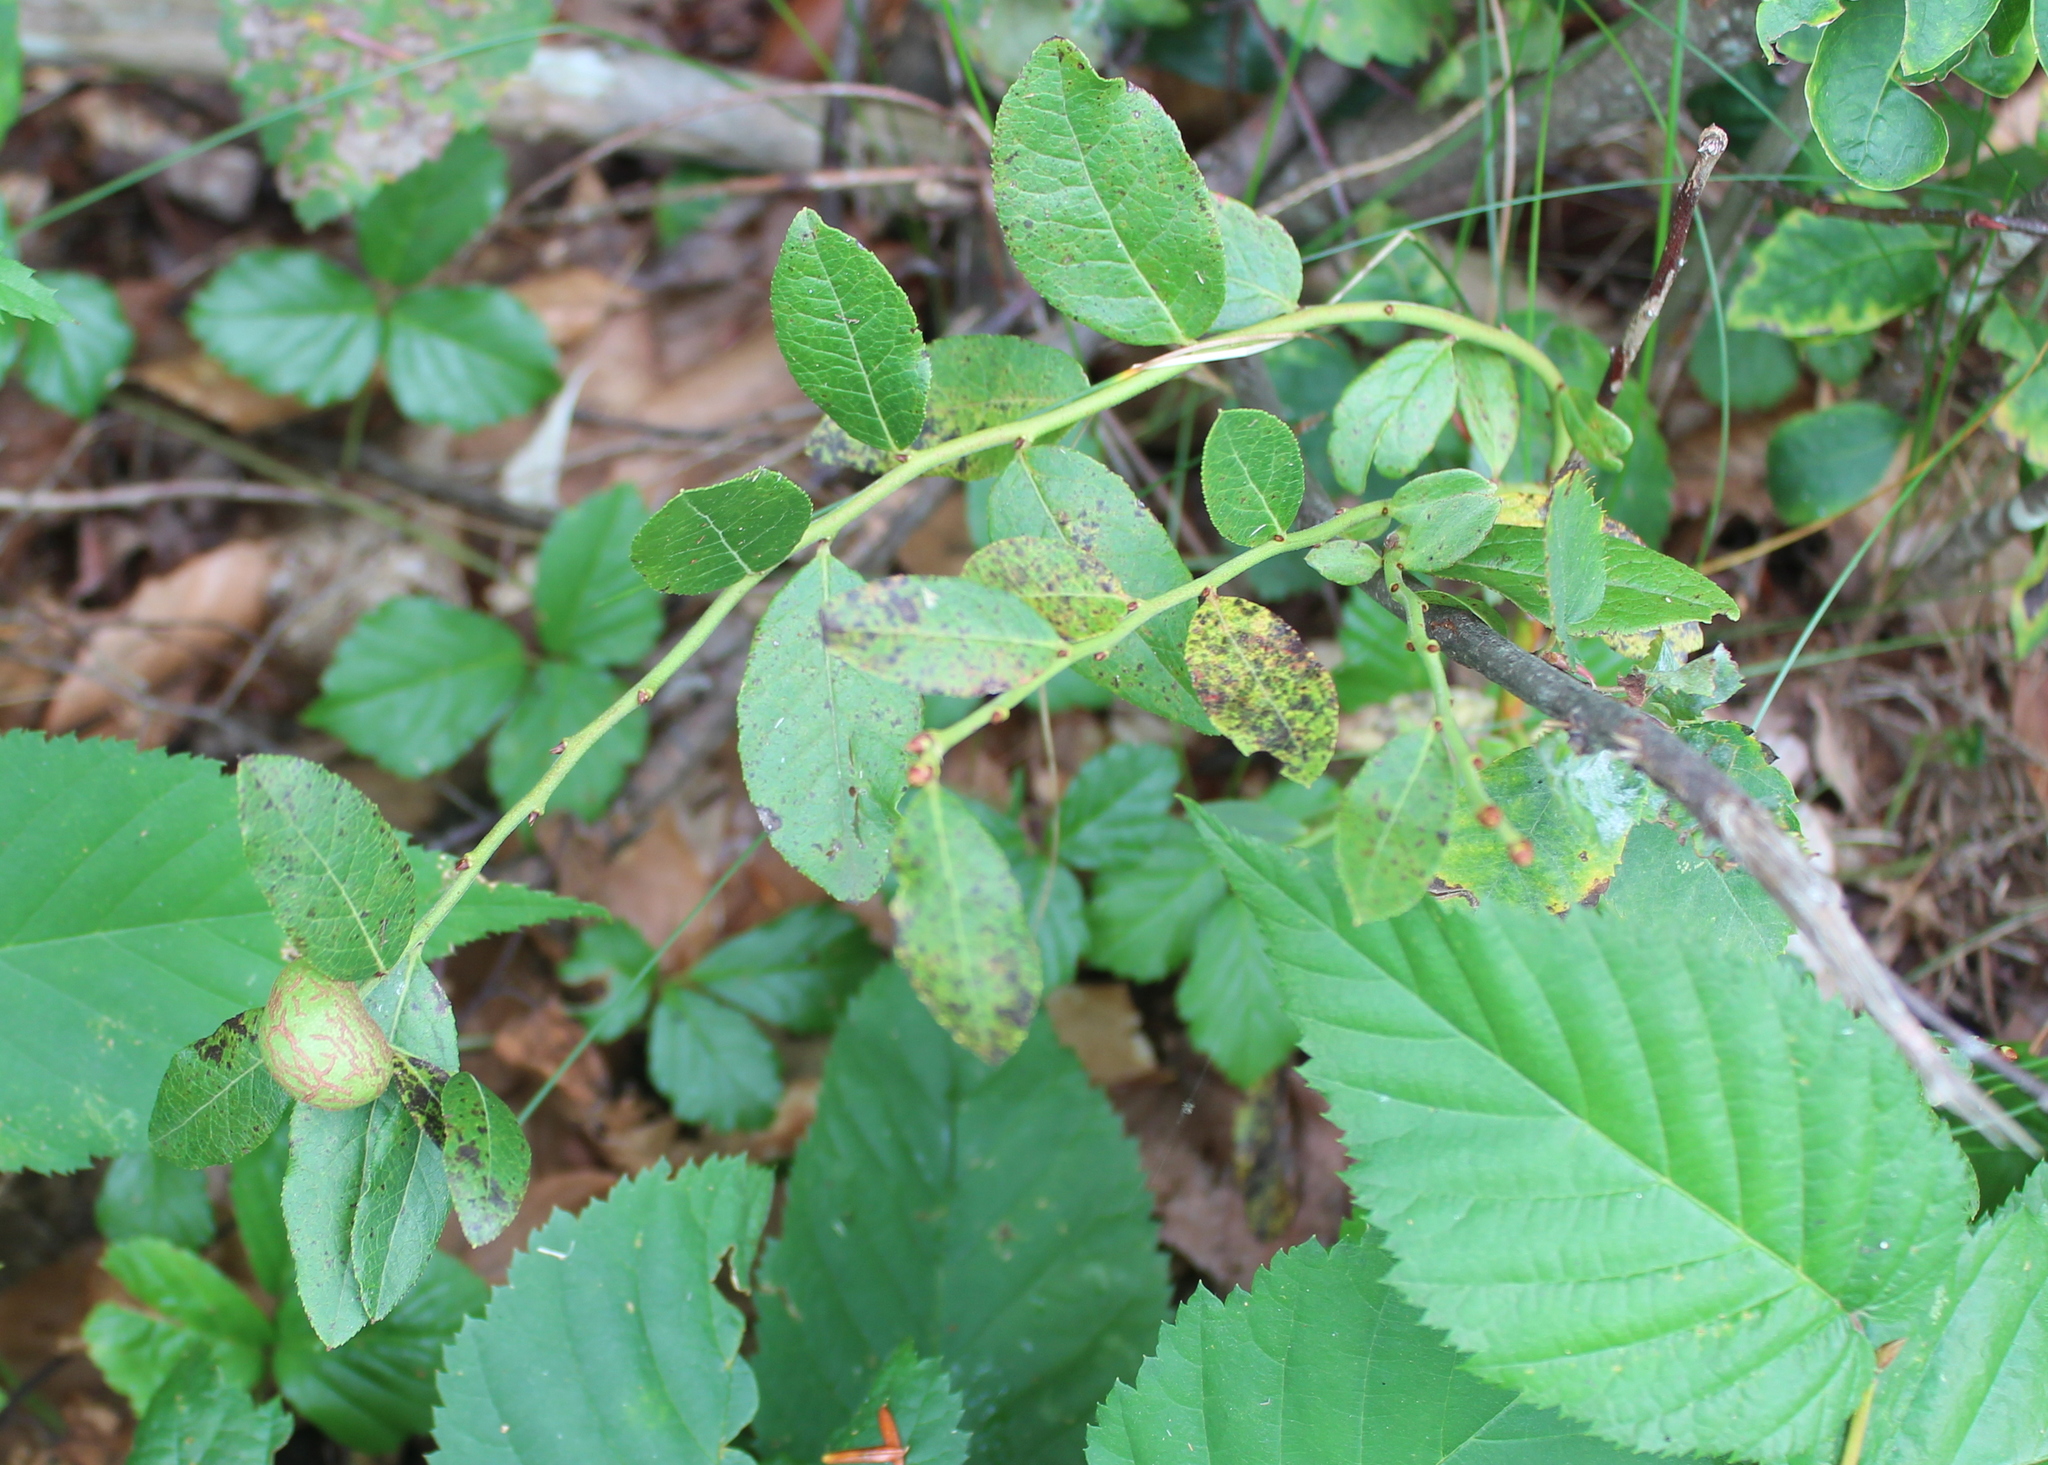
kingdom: Animalia
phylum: Arthropoda
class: Insecta
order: Hymenoptera
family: Pteromalidae
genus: Hemadas
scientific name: Hemadas nubilipennis
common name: Blueberry stem gall wasp
